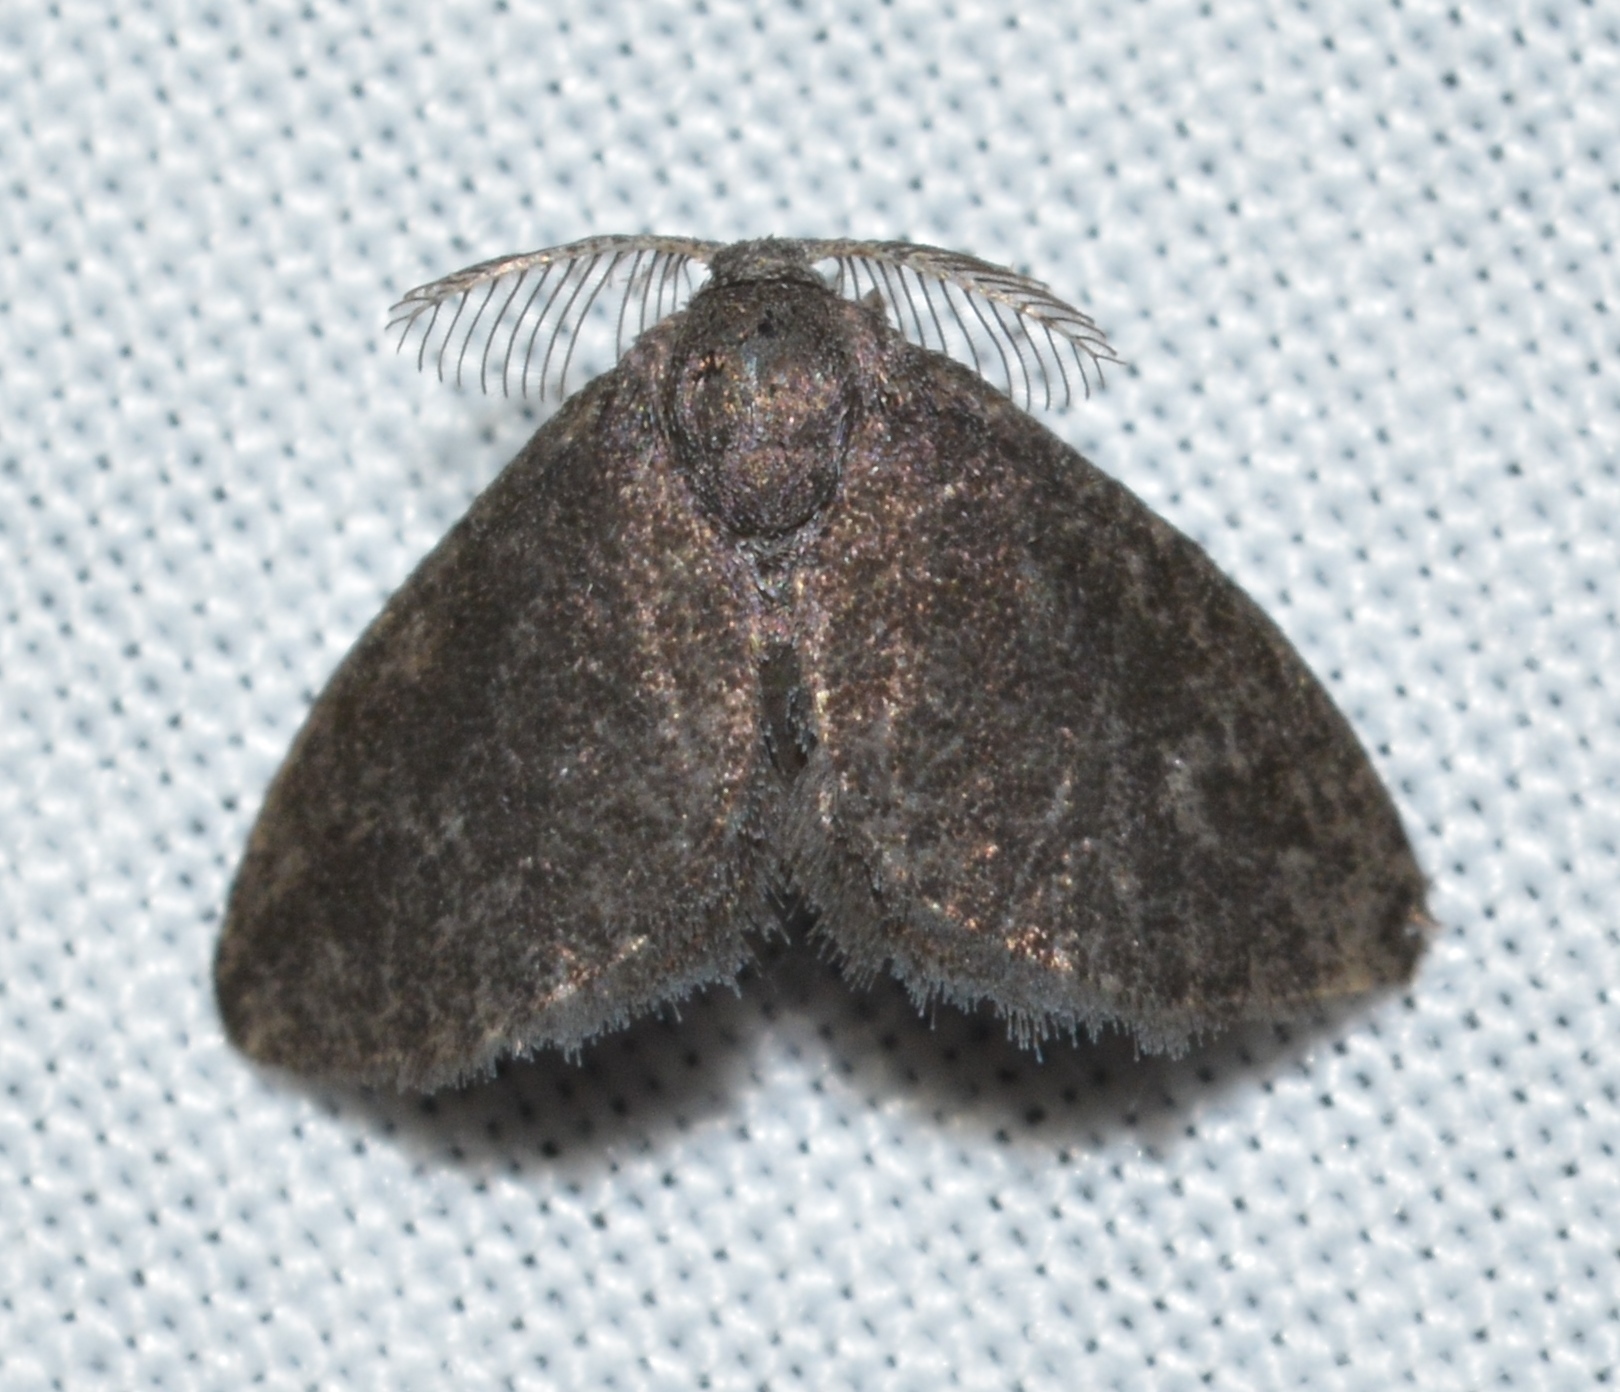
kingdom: Animalia
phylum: Arthropoda
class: Insecta
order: Lepidoptera
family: Epipyropidae
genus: Fulgoraecia
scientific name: Fulgoraecia exigua
